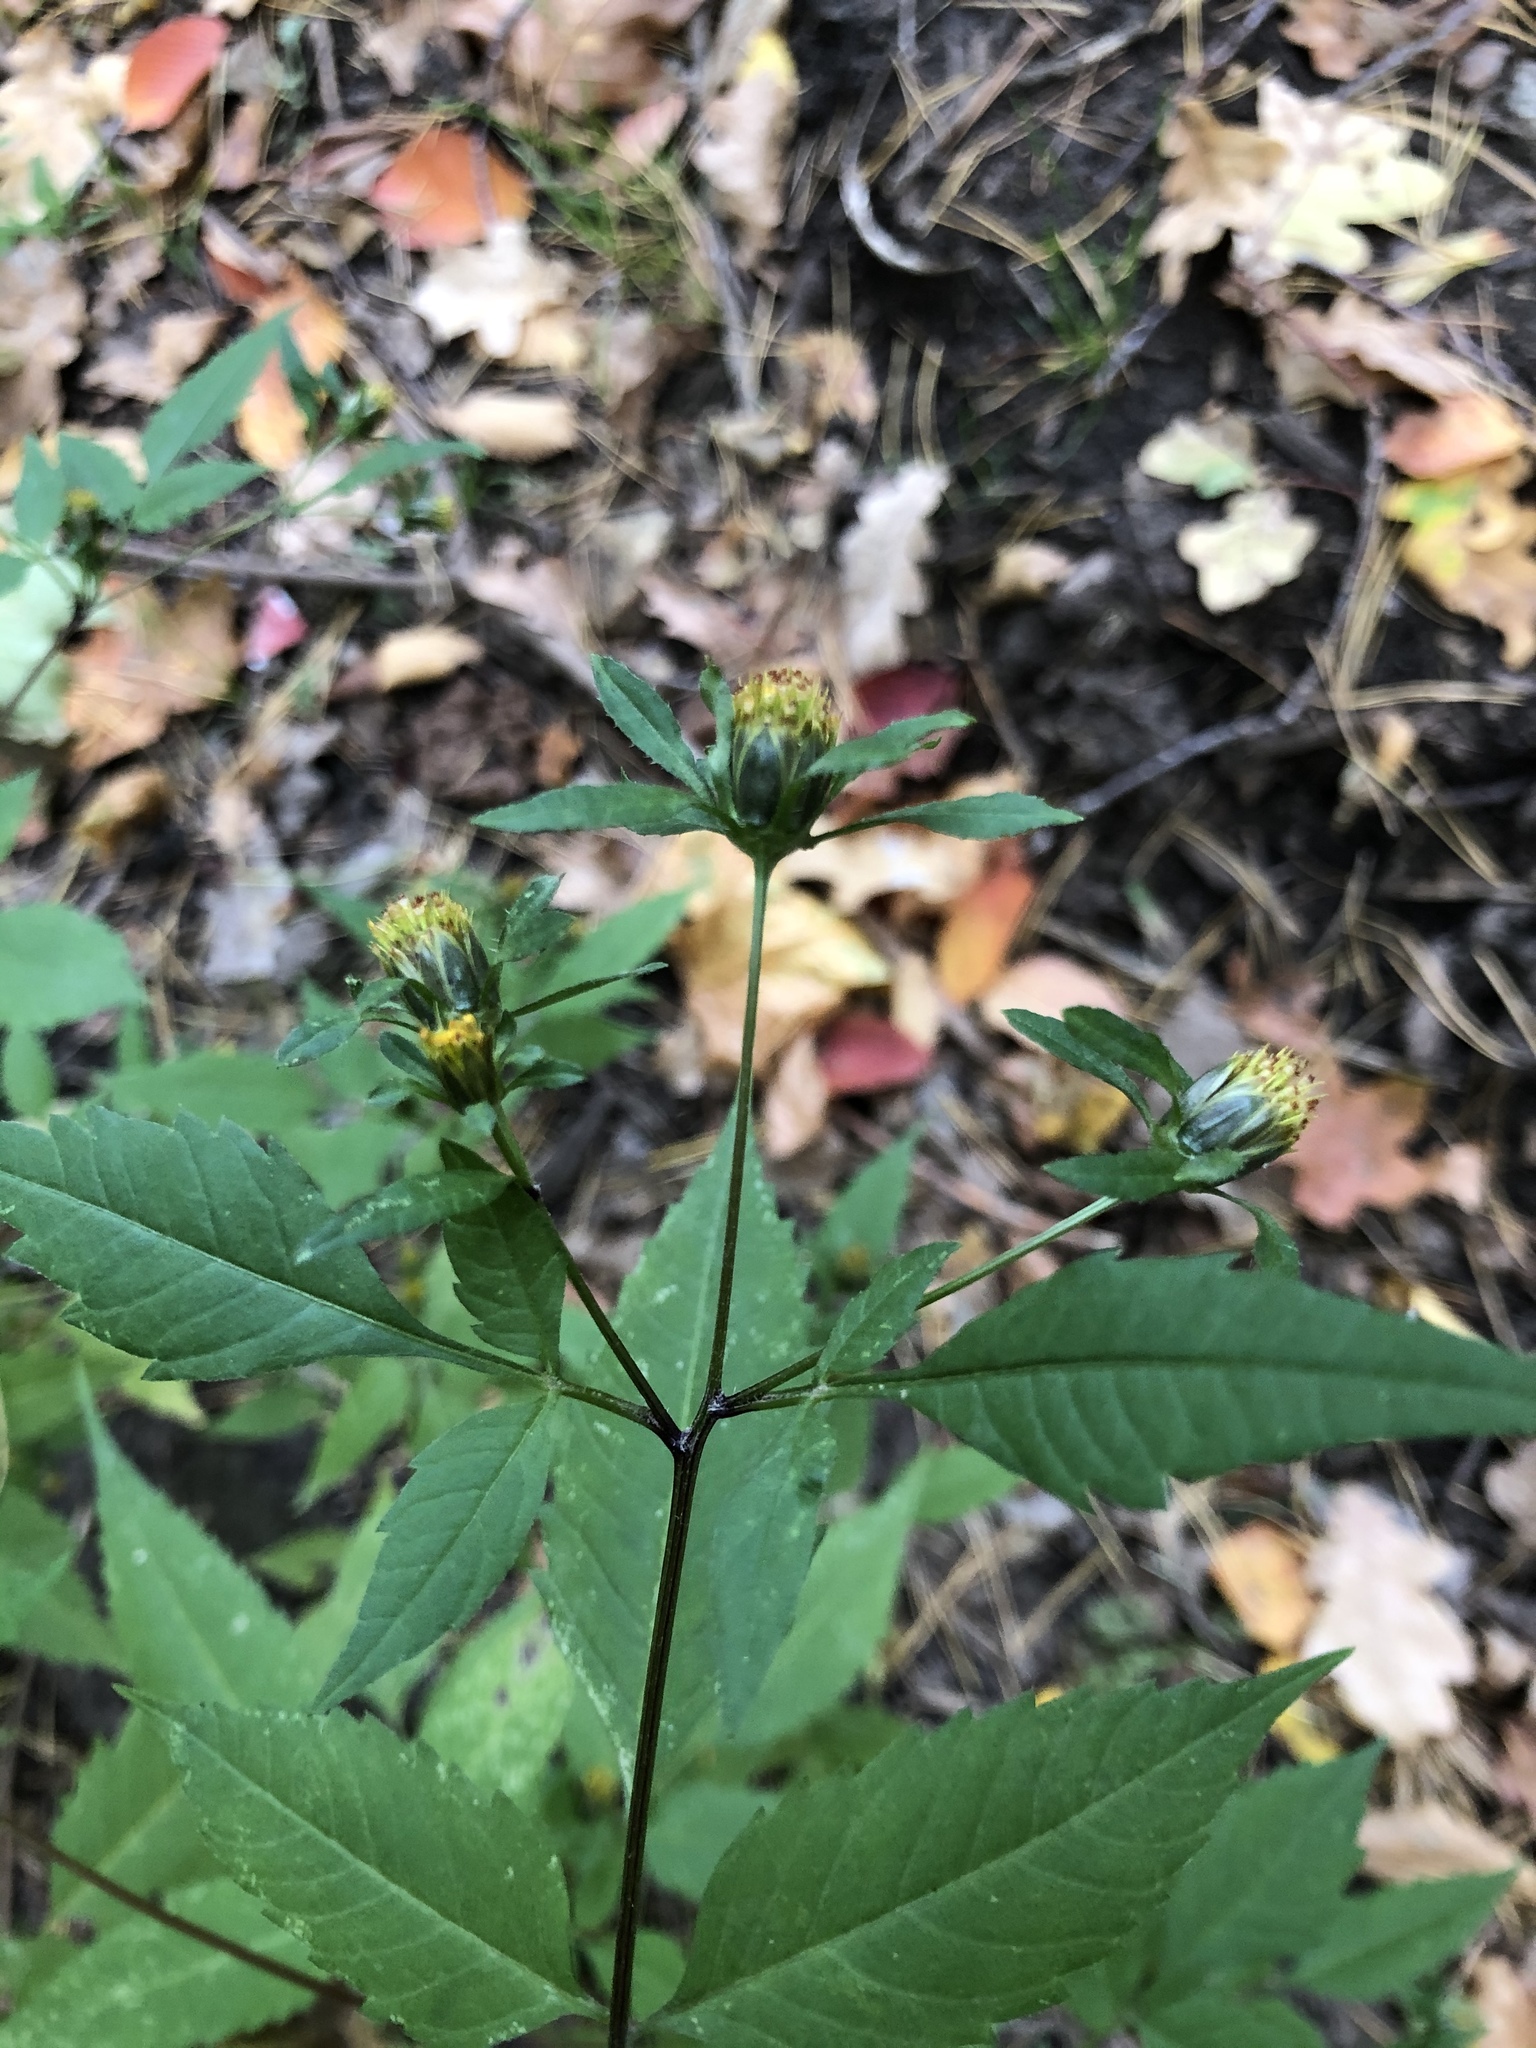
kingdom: Plantae
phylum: Tracheophyta
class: Magnoliopsida
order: Asterales
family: Asteraceae
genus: Bidens
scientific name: Bidens frondosa
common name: Beggarticks
